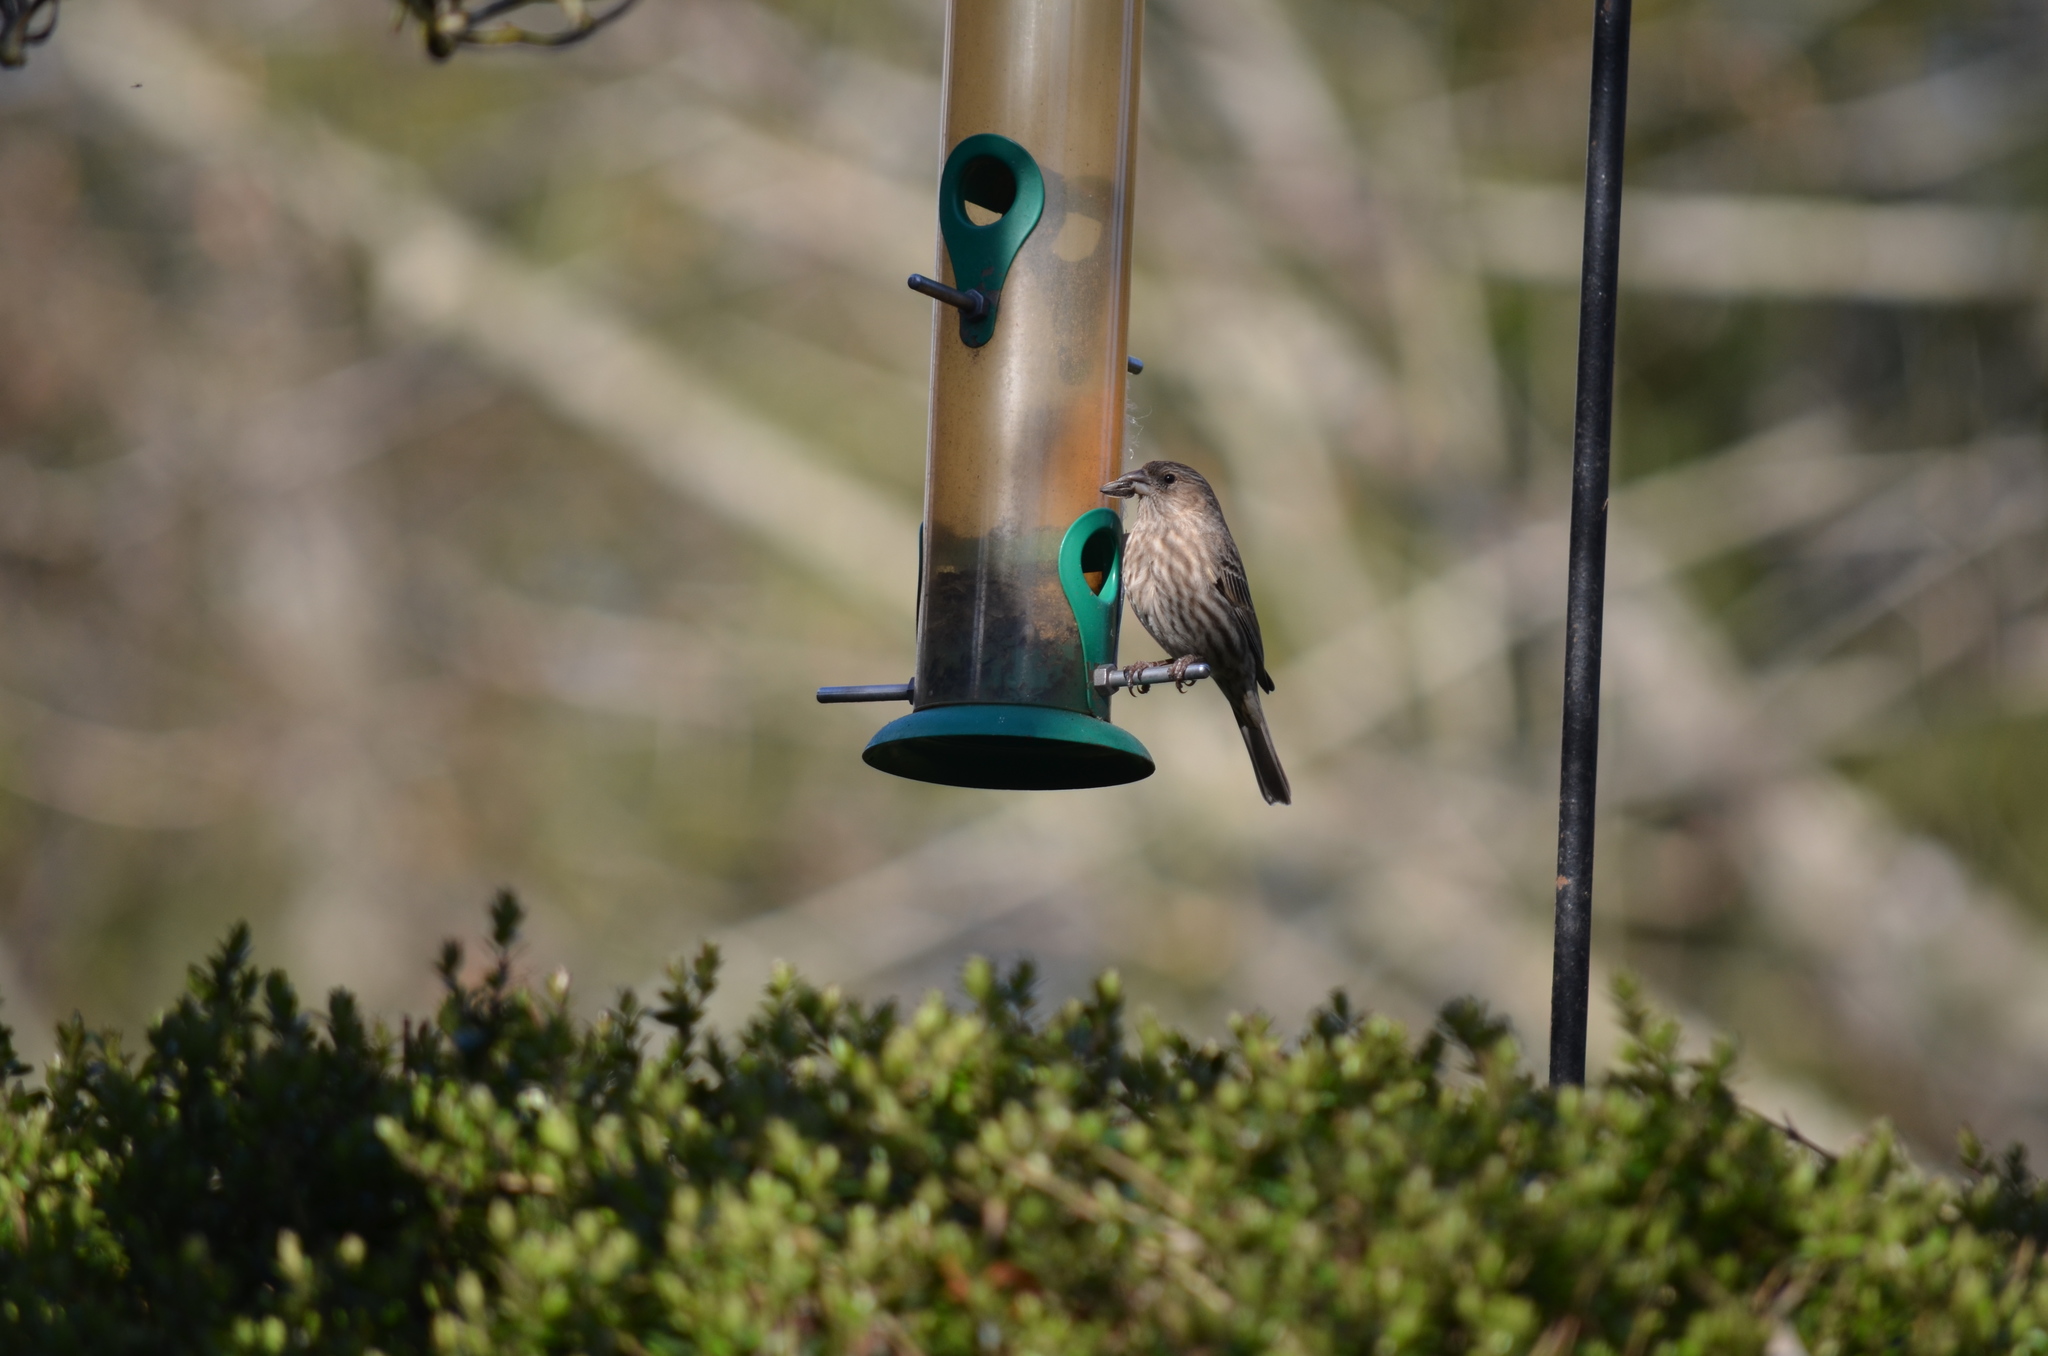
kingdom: Animalia
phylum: Chordata
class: Aves
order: Passeriformes
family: Fringillidae
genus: Haemorhous
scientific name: Haemorhous mexicanus
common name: House finch
